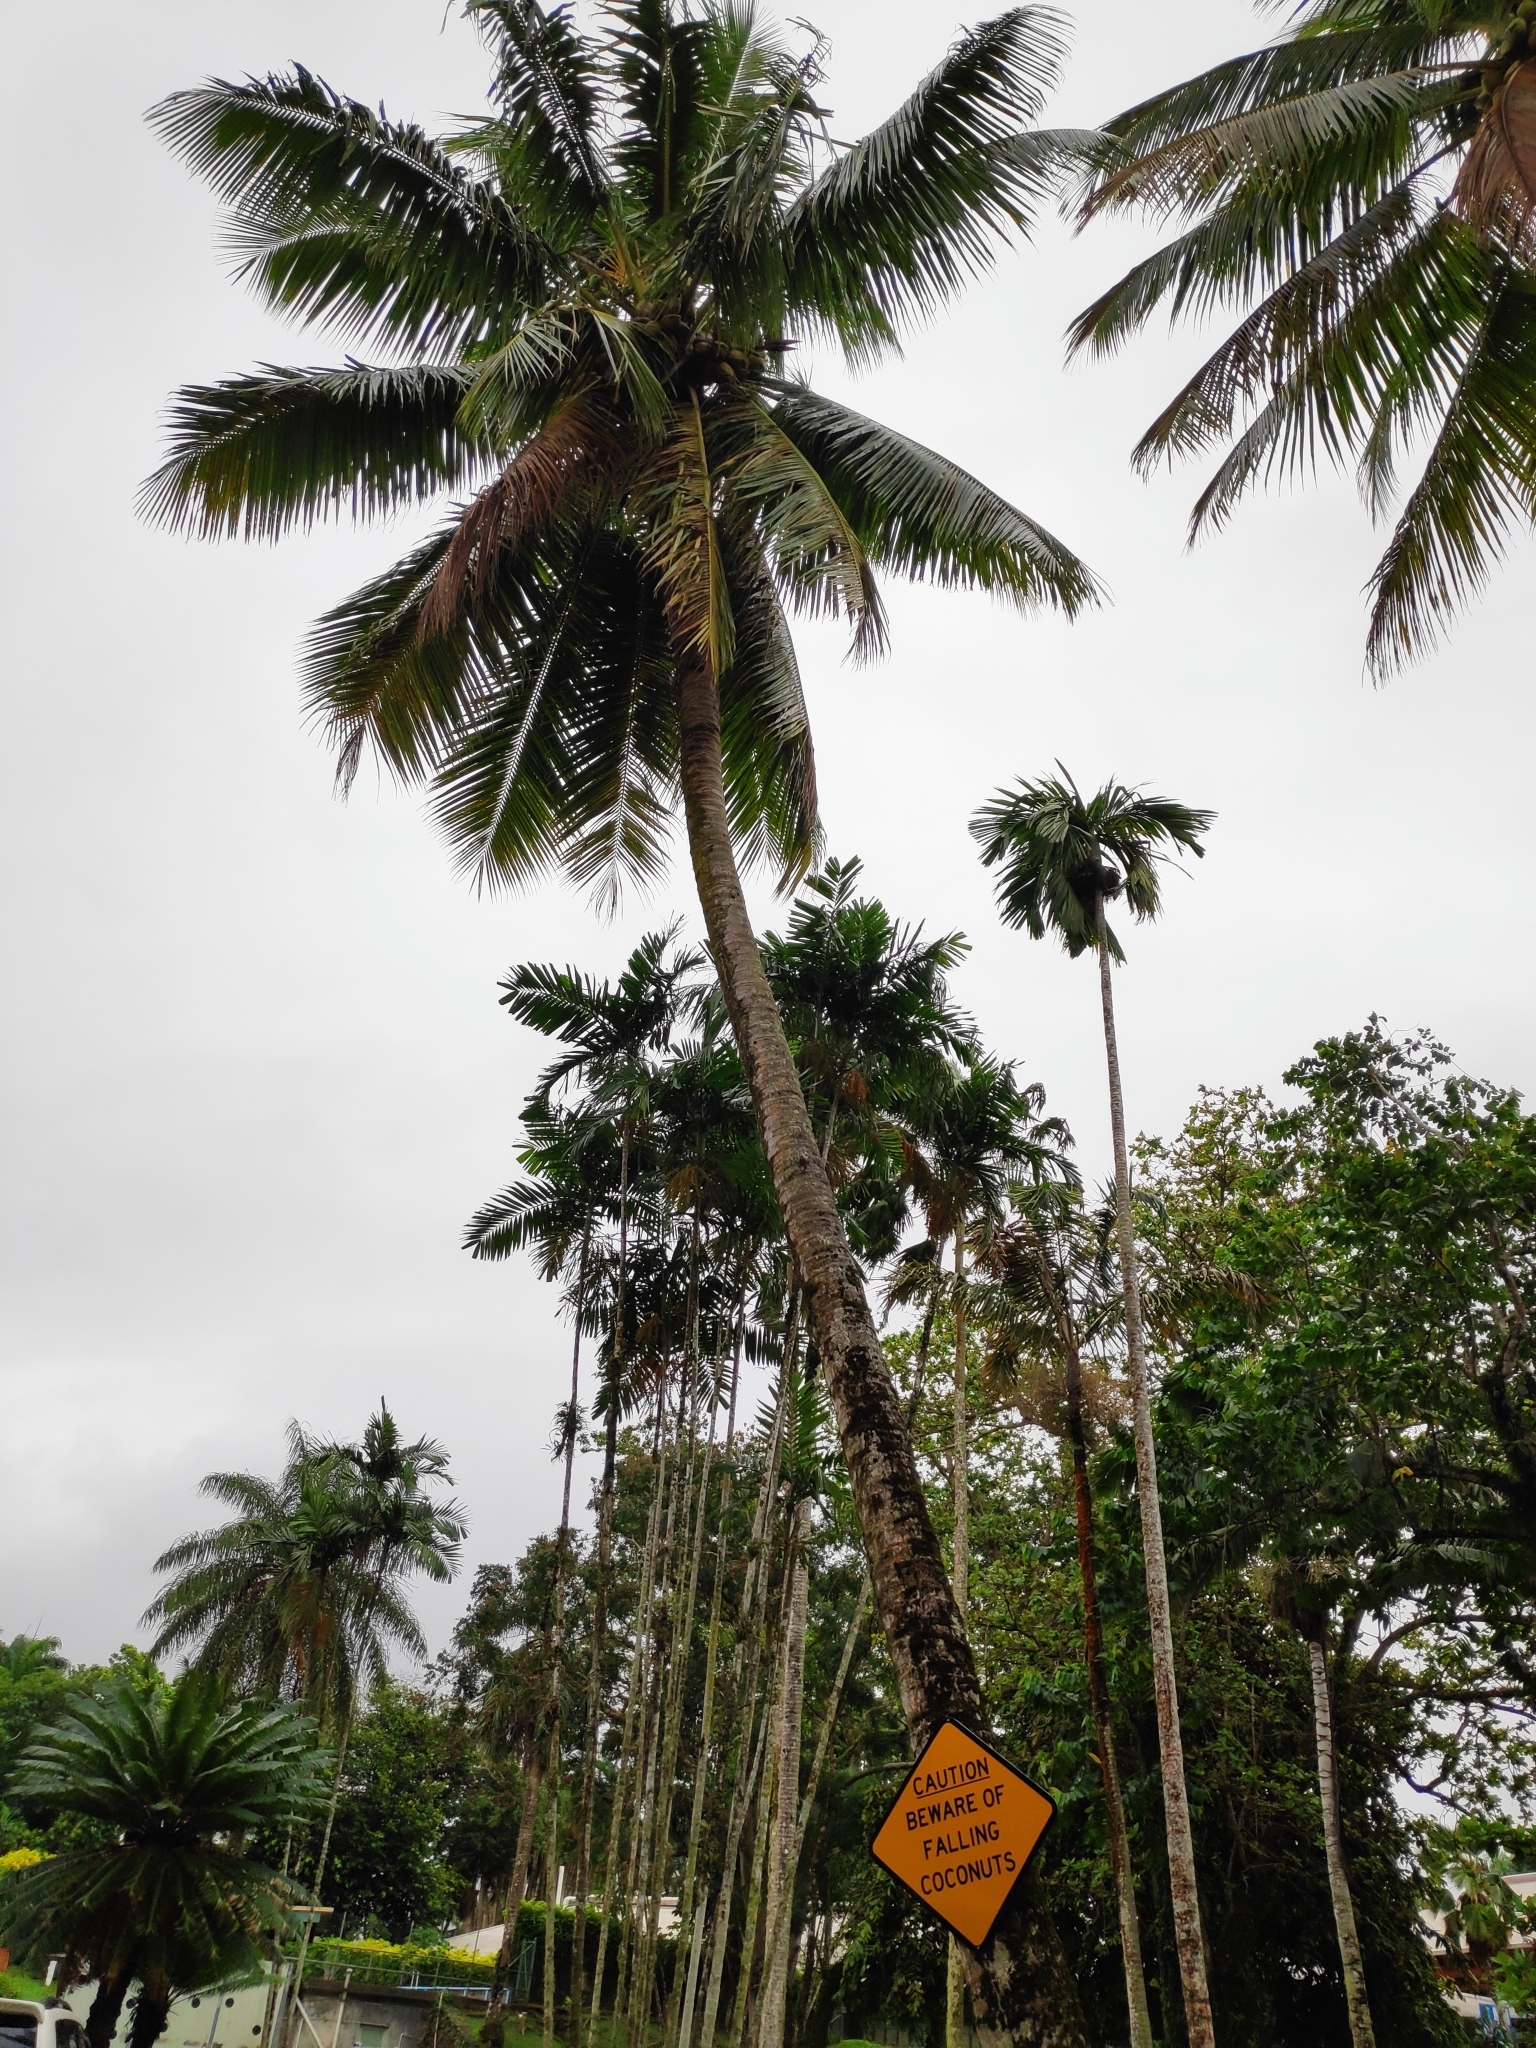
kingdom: Plantae
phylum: Tracheophyta
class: Liliopsida
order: Arecales
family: Arecaceae
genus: Cocos
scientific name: Cocos nucifera
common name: Coconut palm
